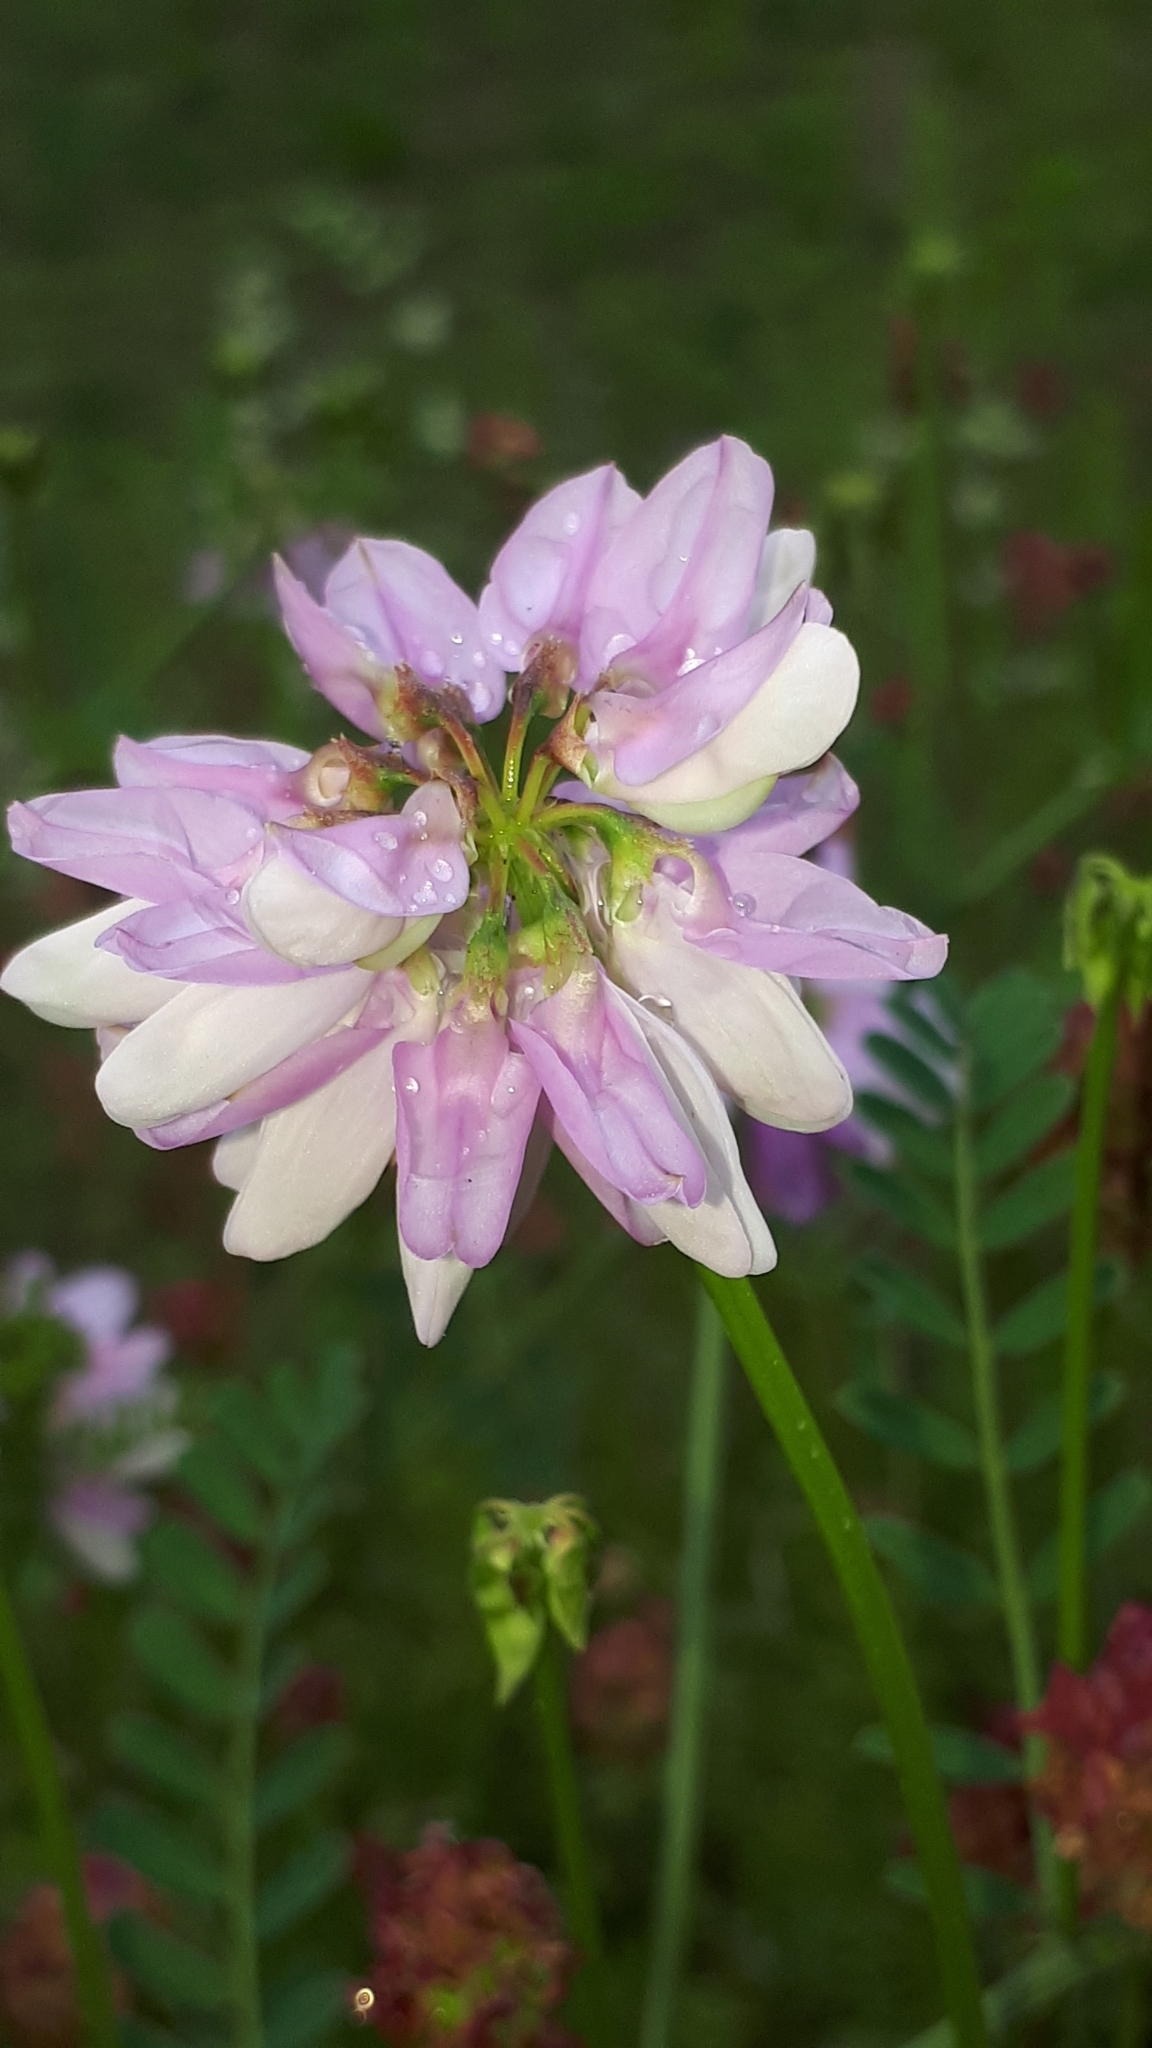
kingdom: Plantae
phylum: Tracheophyta
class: Magnoliopsida
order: Fabales
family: Fabaceae
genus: Coronilla
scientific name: Coronilla varia
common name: Crownvetch
